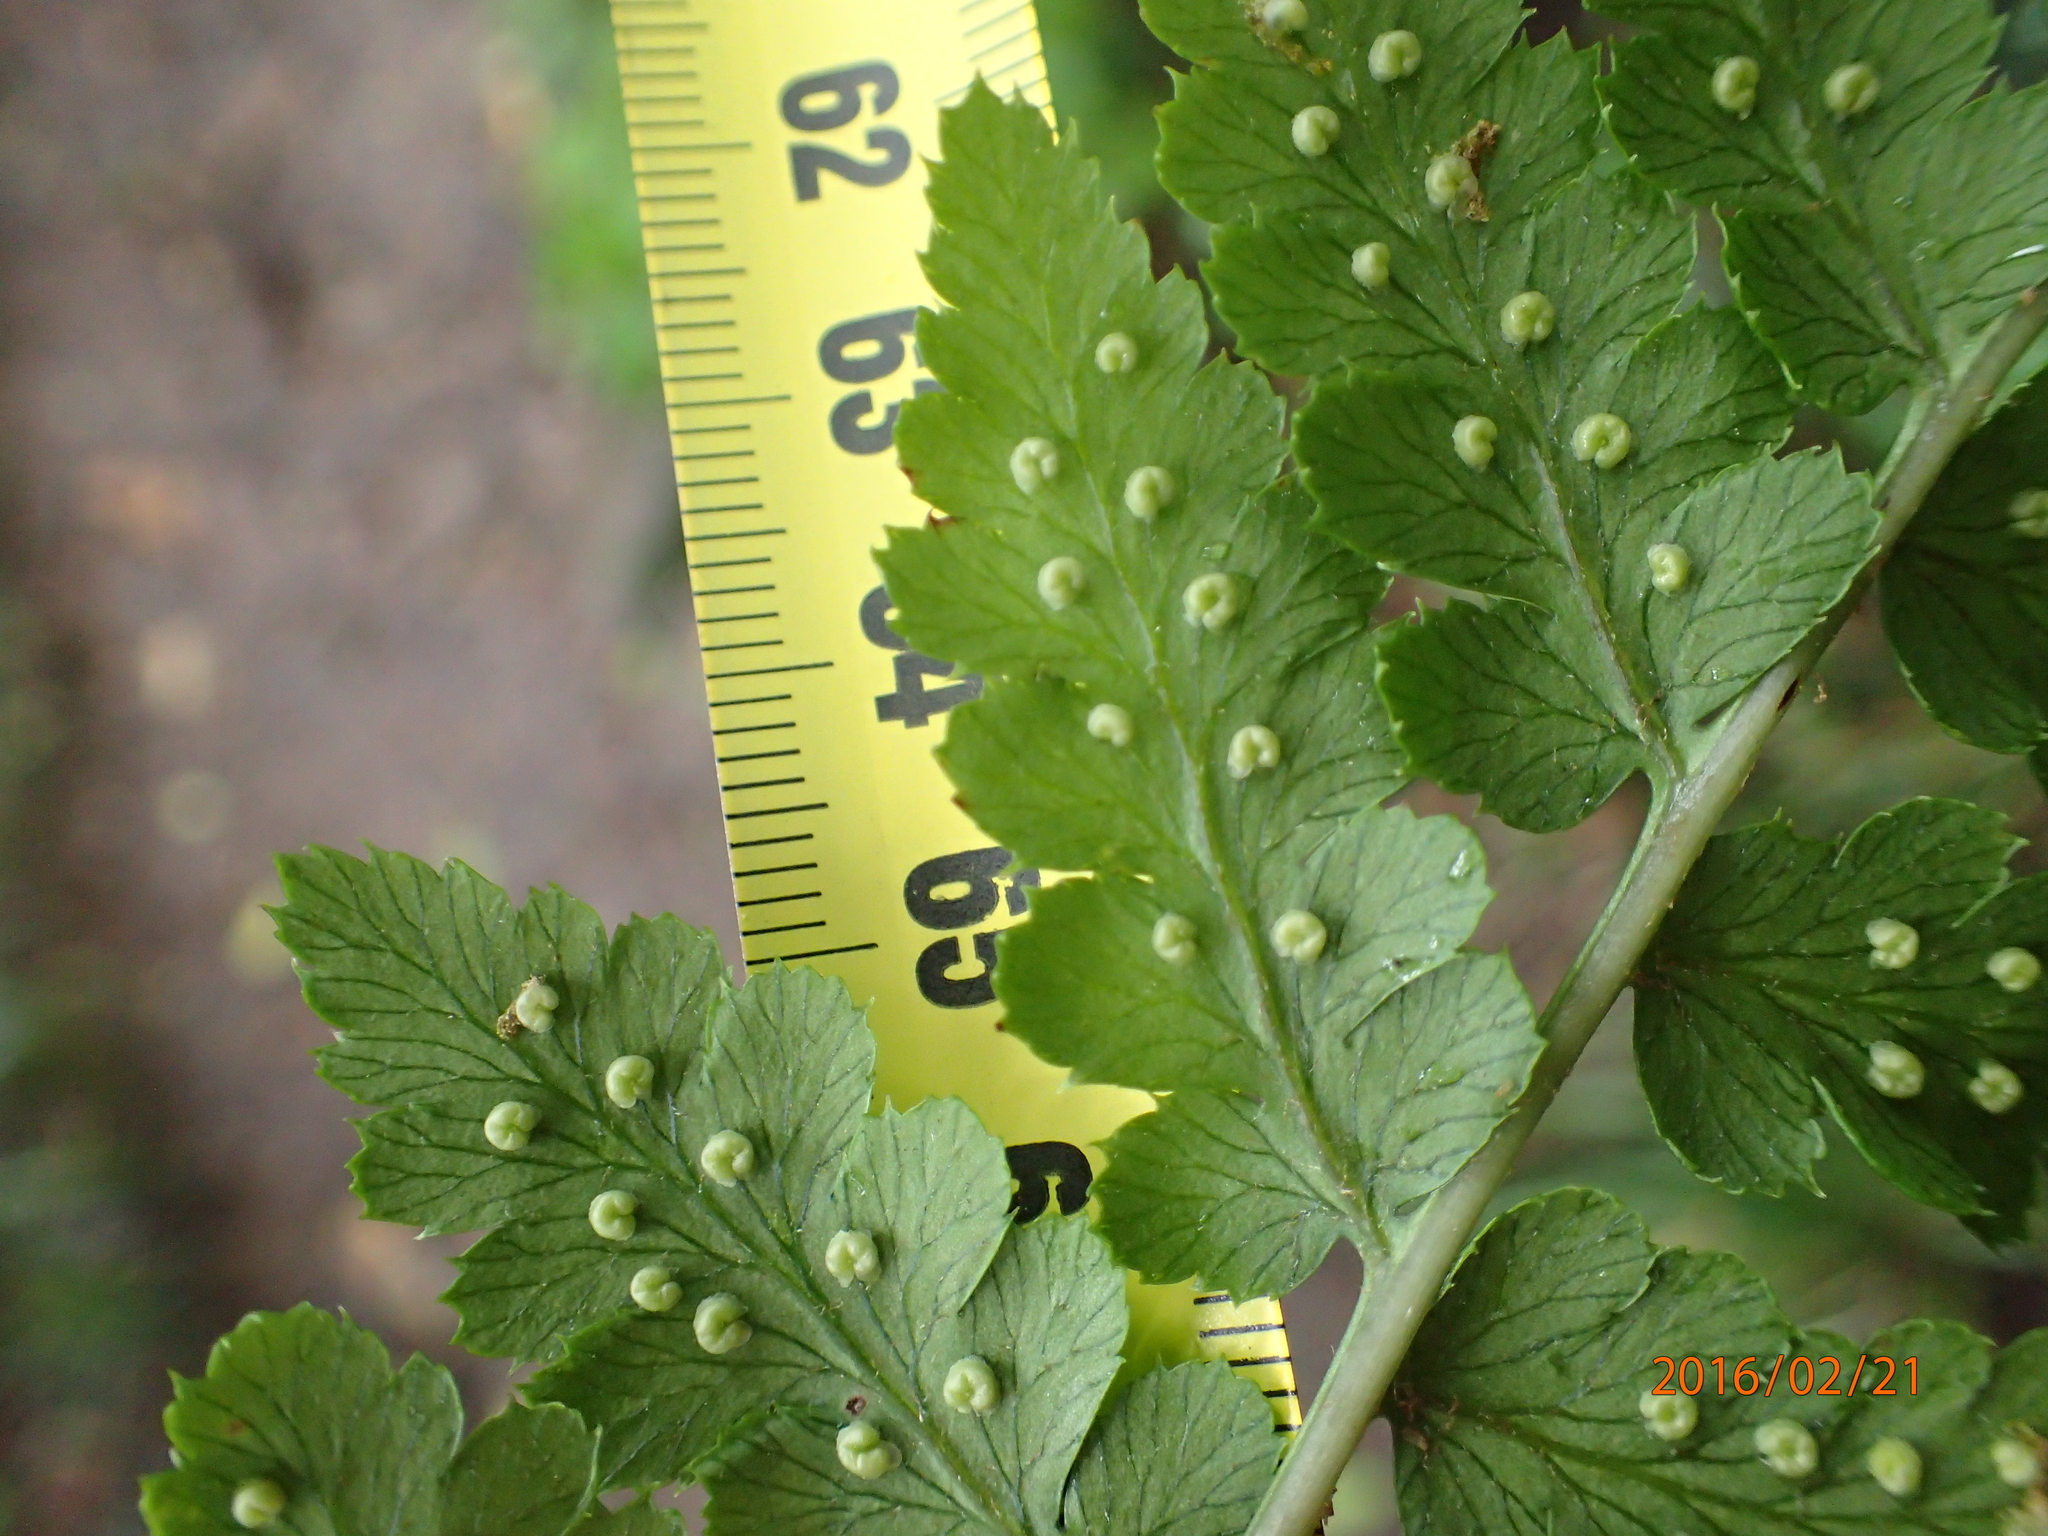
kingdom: Plantae
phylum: Tracheophyta
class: Polypodiopsida
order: Polypodiales
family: Dryopteridaceae
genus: Dryopteris
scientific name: Dryopteris inaequalis
